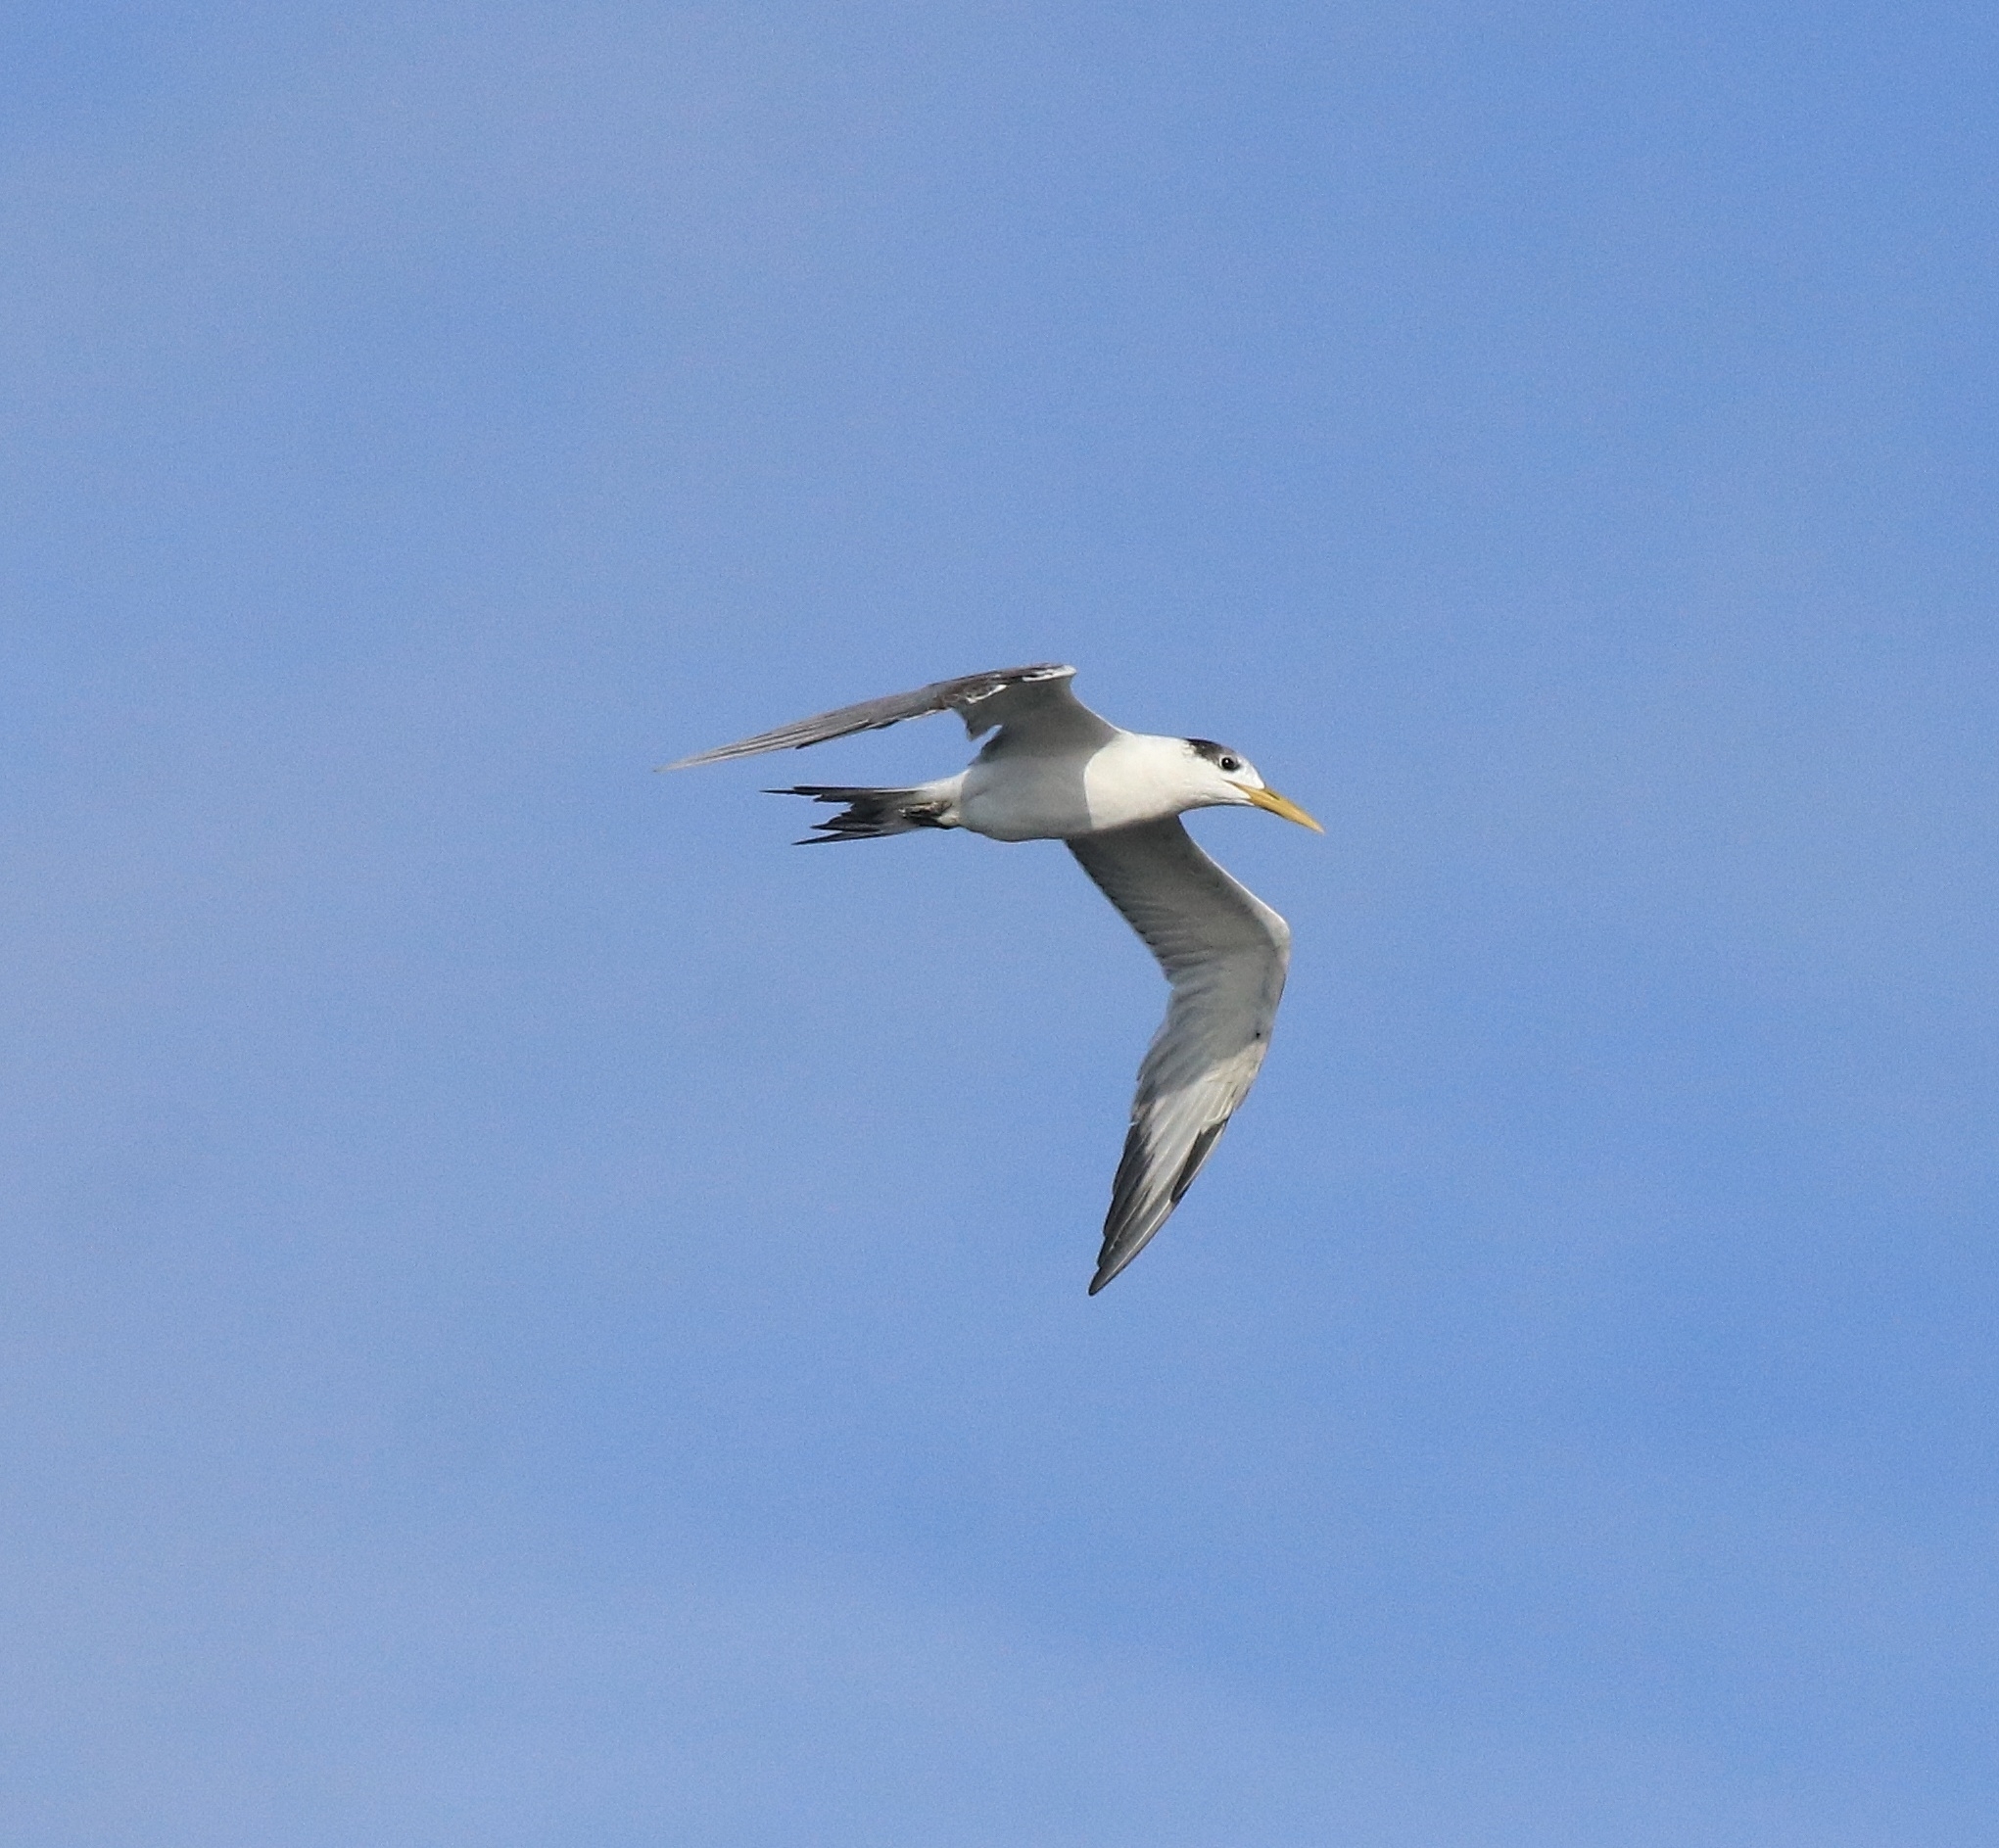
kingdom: Animalia
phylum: Chordata
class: Aves
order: Charadriiformes
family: Laridae
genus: Thalasseus
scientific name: Thalasseus bergii
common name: Greater crested tern
